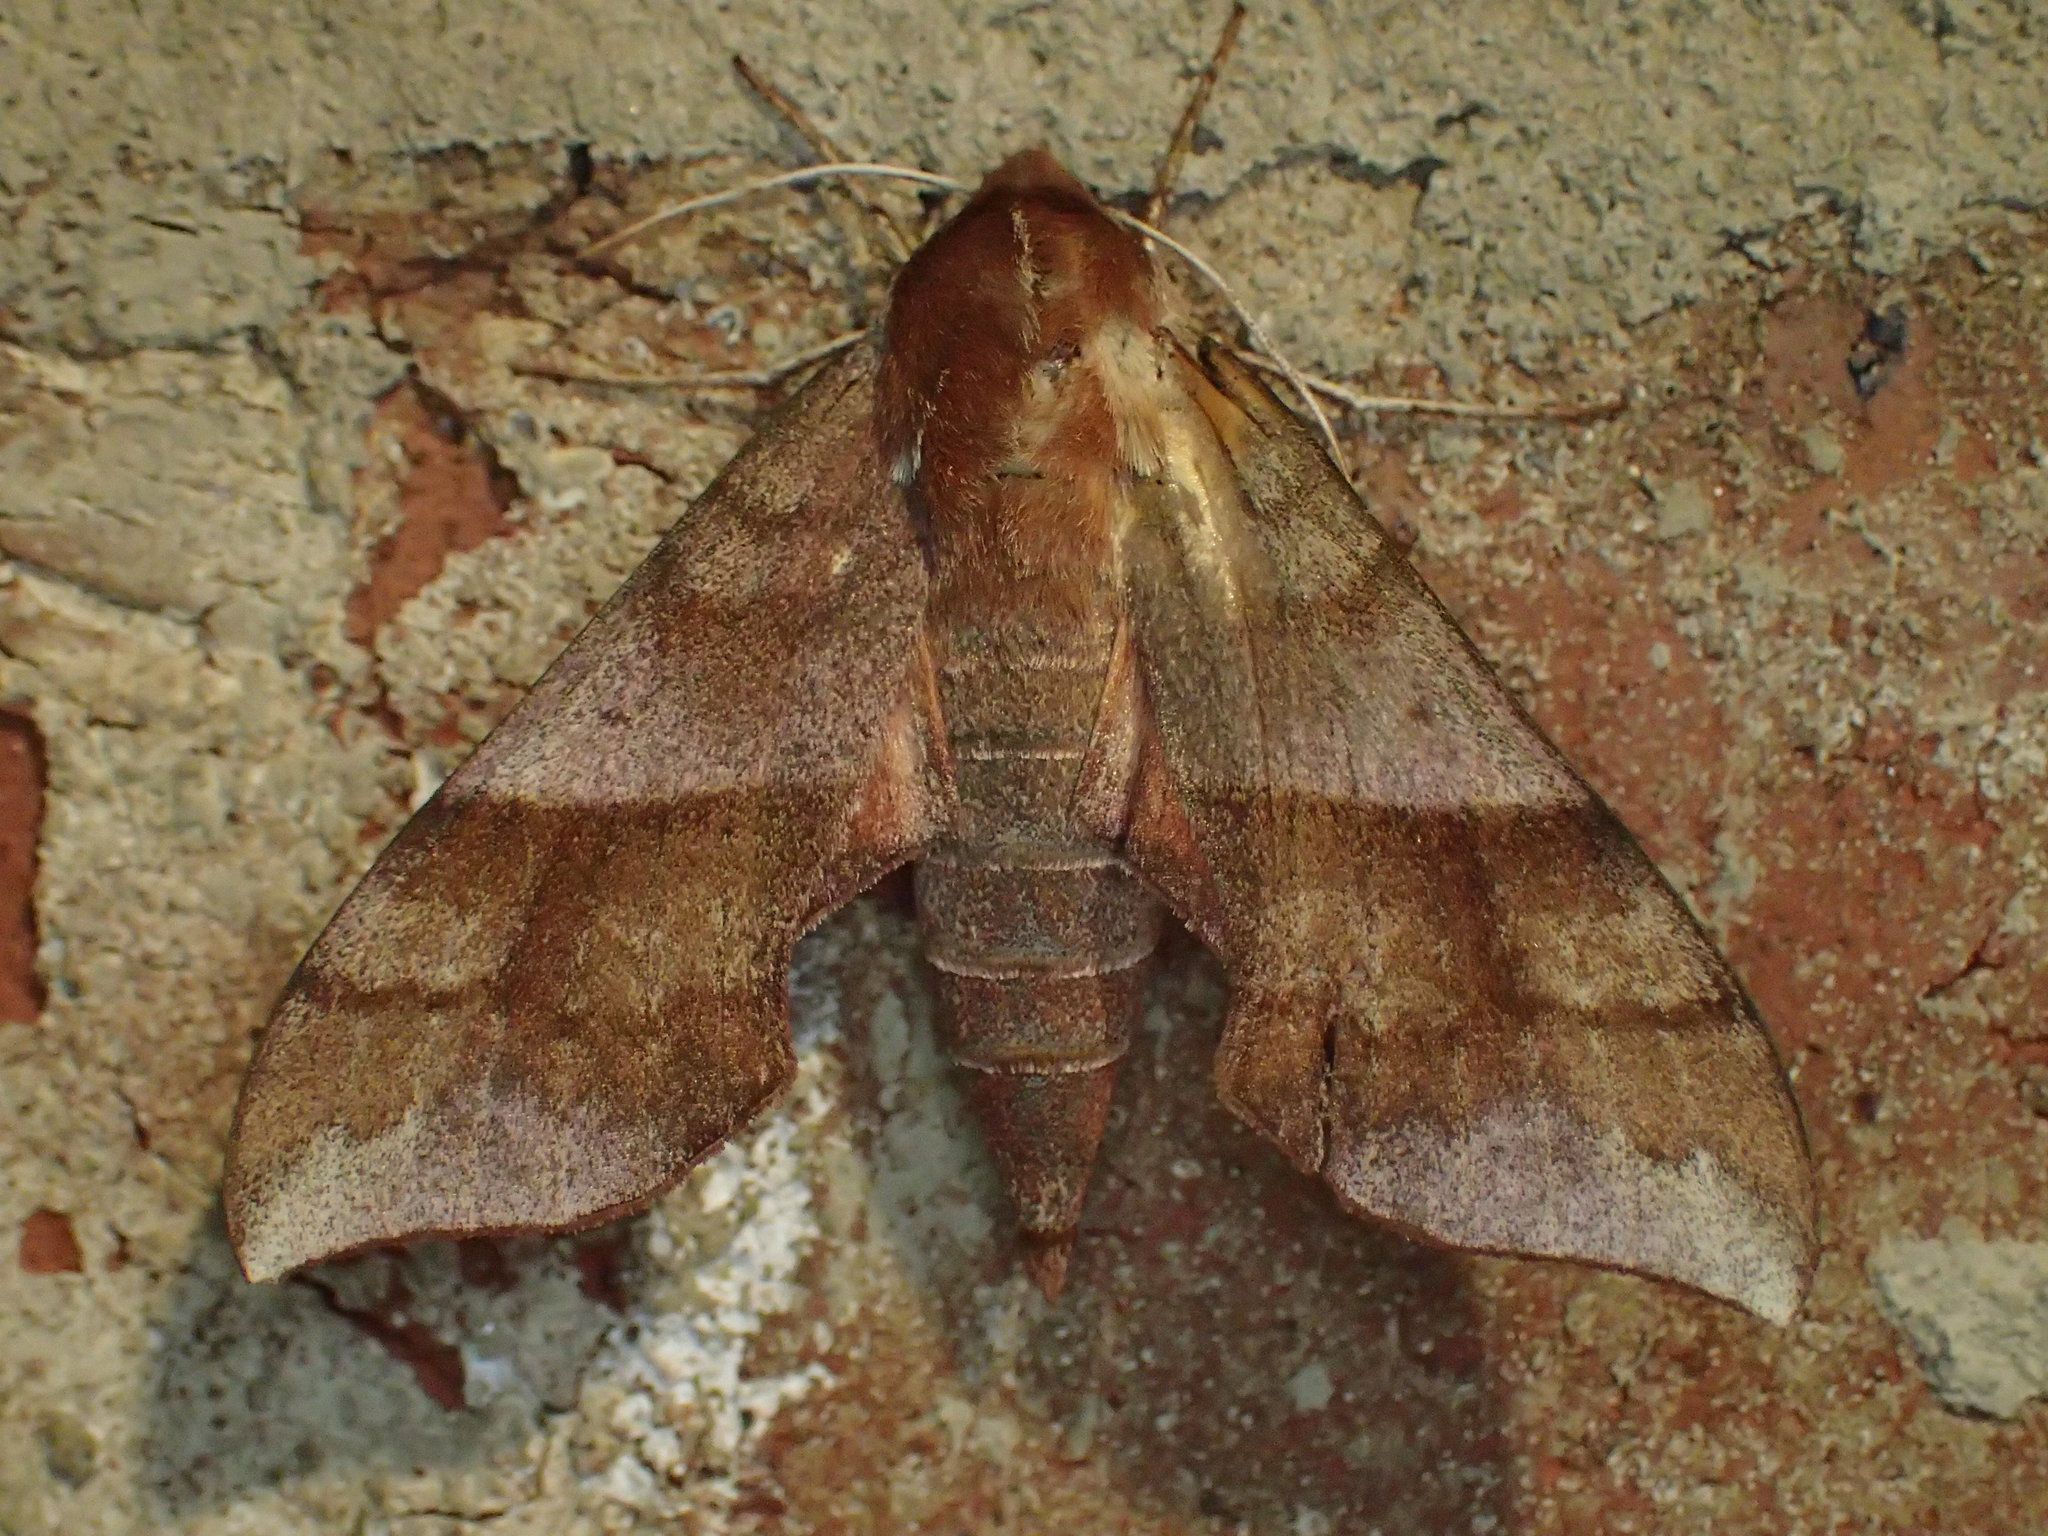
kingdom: Animalia
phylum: Arthropoda
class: Insecta
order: Lepidoptera
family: Sphingidae
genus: Darapsa
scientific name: Darapsa choerilus
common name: Azalea sphinx
